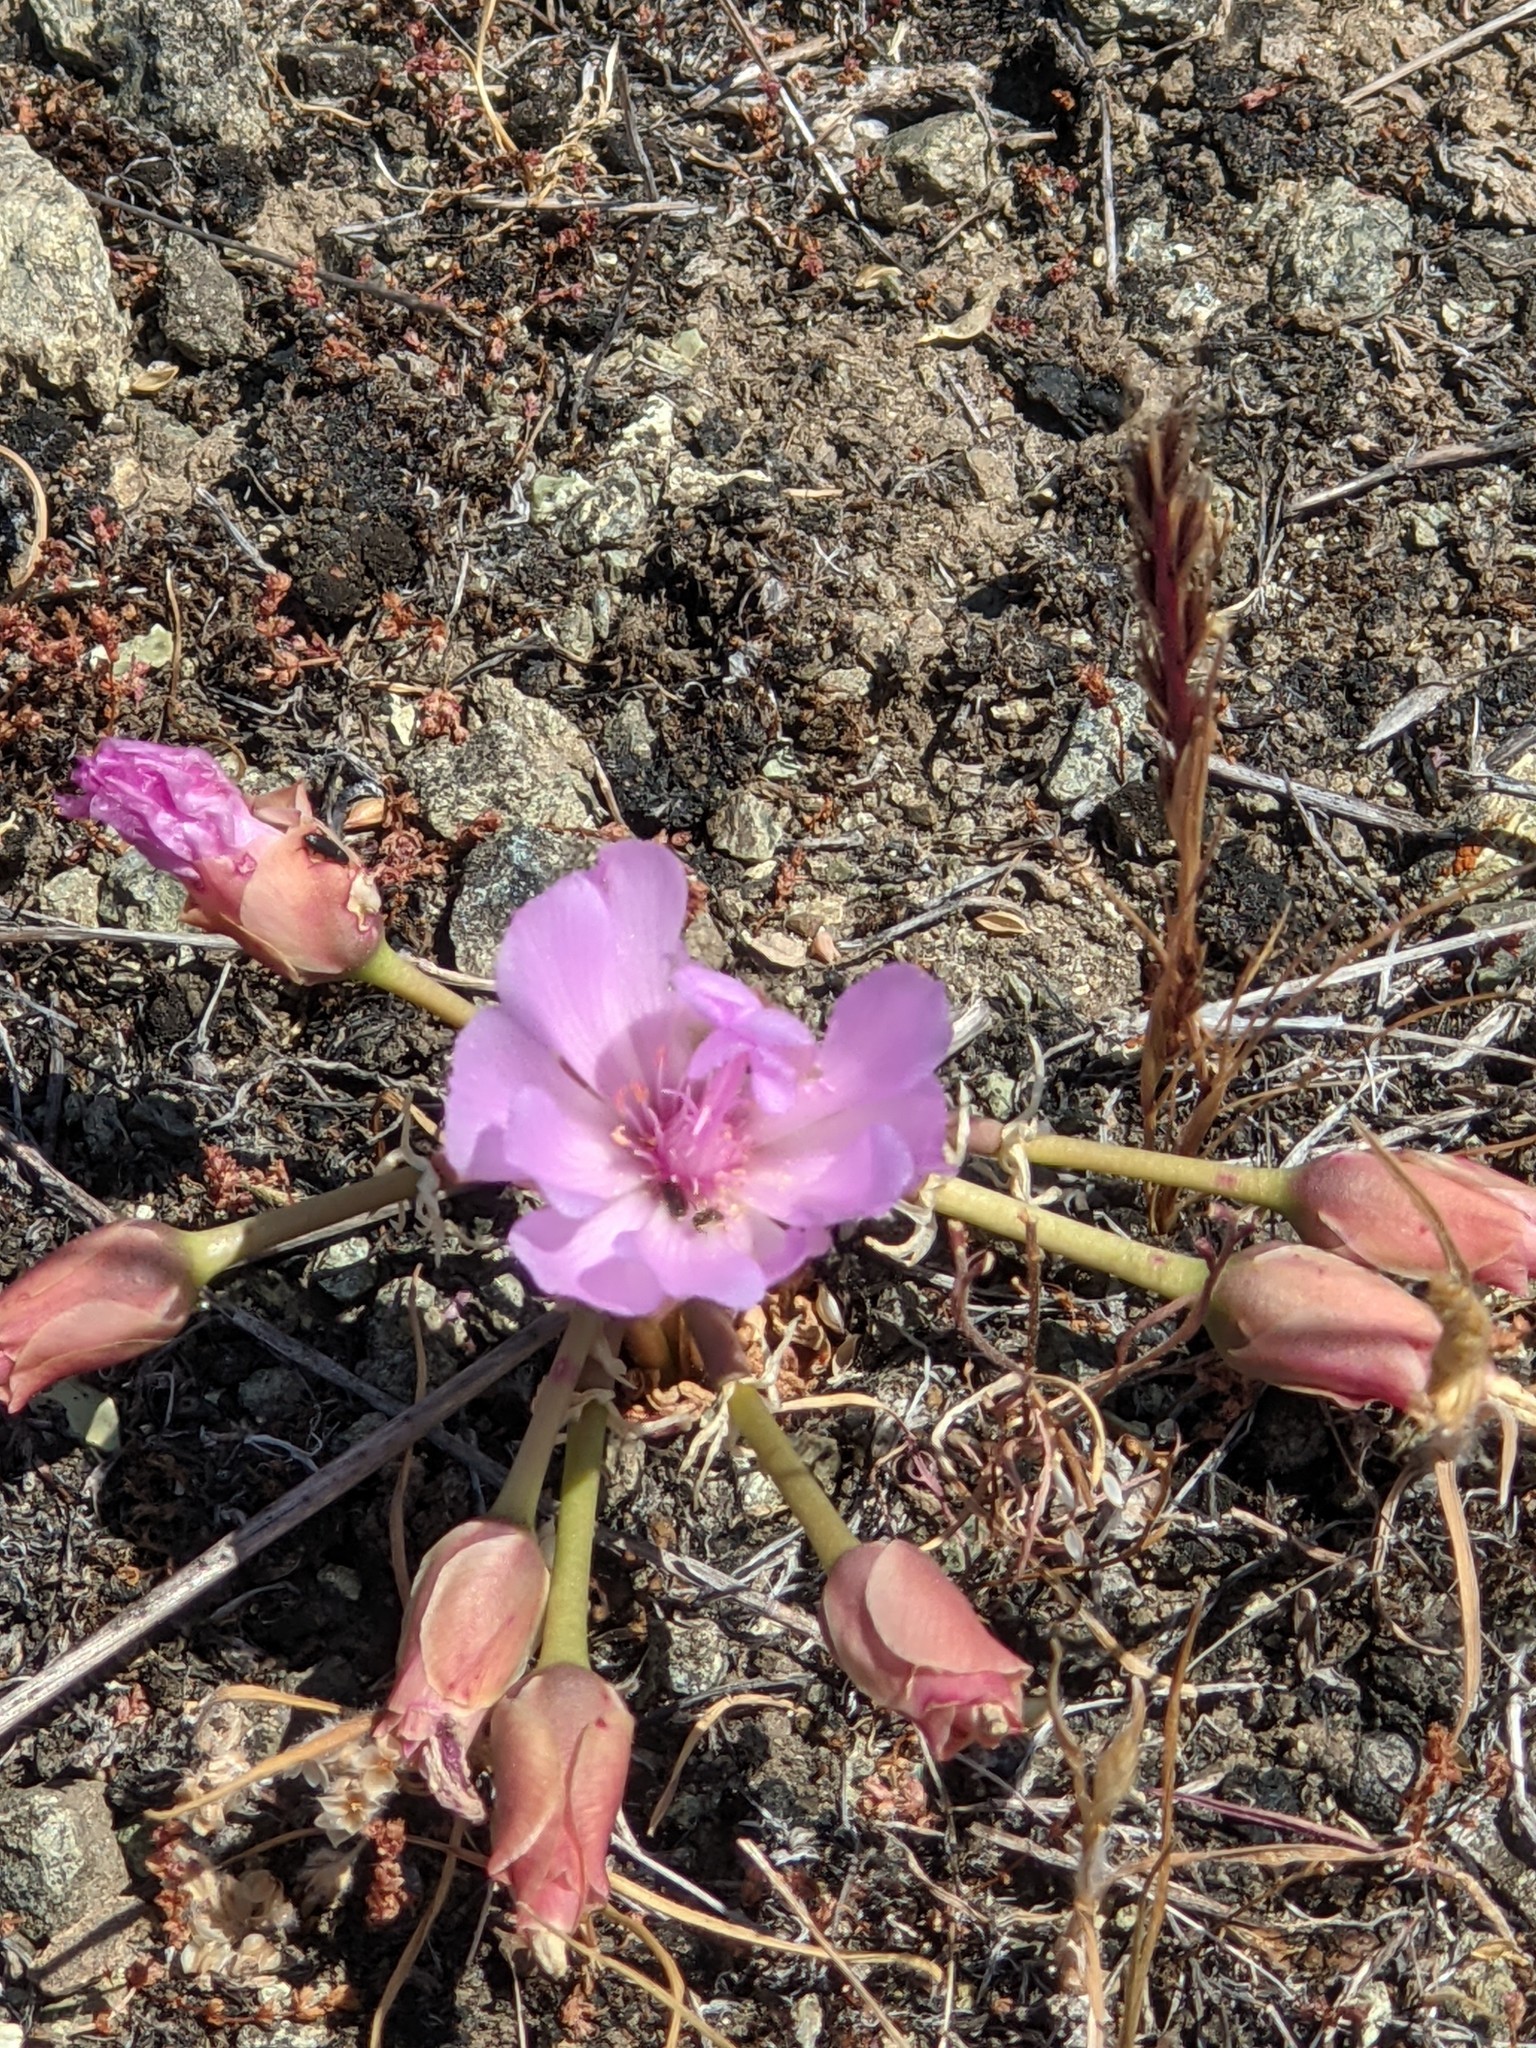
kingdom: Plantae
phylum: Tracheophyta
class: Magnoliopsida
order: Caryophyllales
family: Montiaceae
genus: Lewisia
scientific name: Lewisia rediviva
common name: Bitter-root
